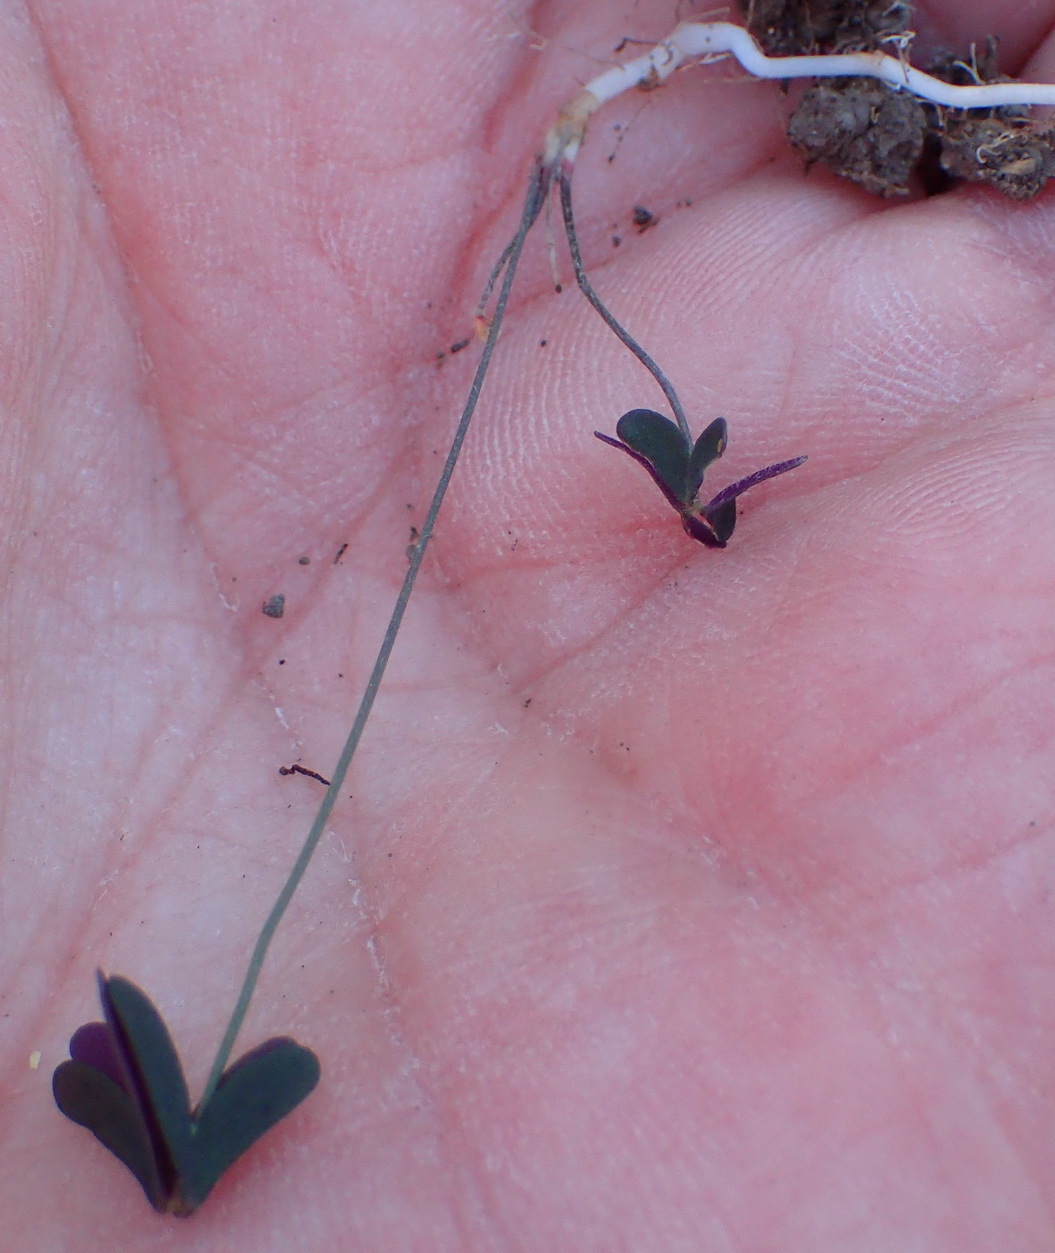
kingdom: Plantae
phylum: Tracheophyta
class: Magnoliopsida
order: Oxalidales
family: Oxalidaceae
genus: Oxalis
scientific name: Oxalis dichotoma
